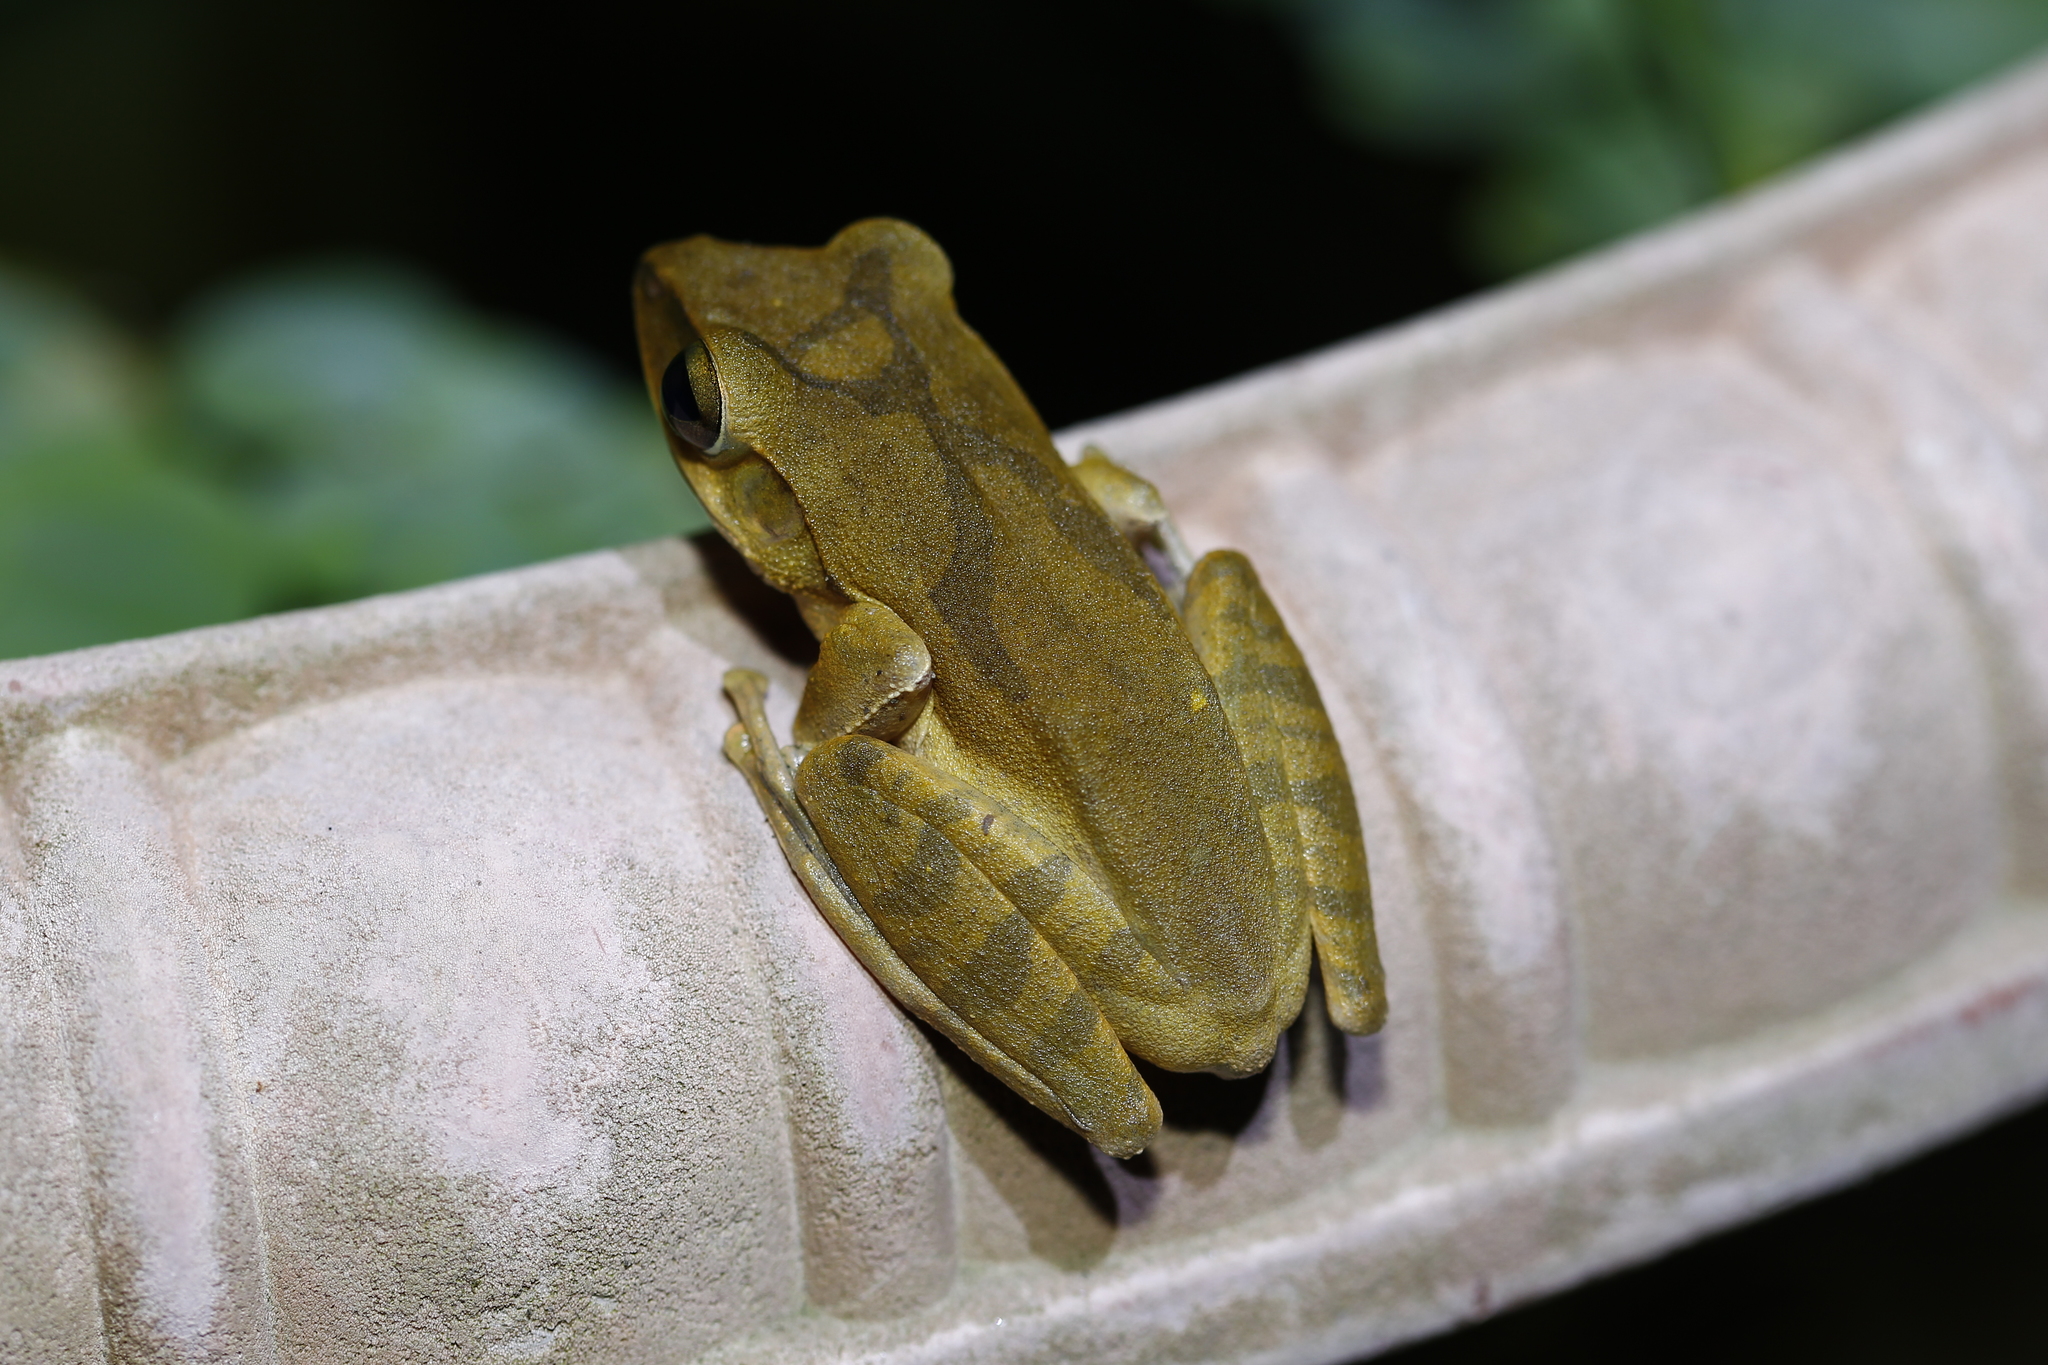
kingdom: Animalia
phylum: Chordata
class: Amphibia
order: Anura
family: Rhacophoridae
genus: Polypedates
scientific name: Polypedates megacephalus
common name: Hong kong whipping frog
